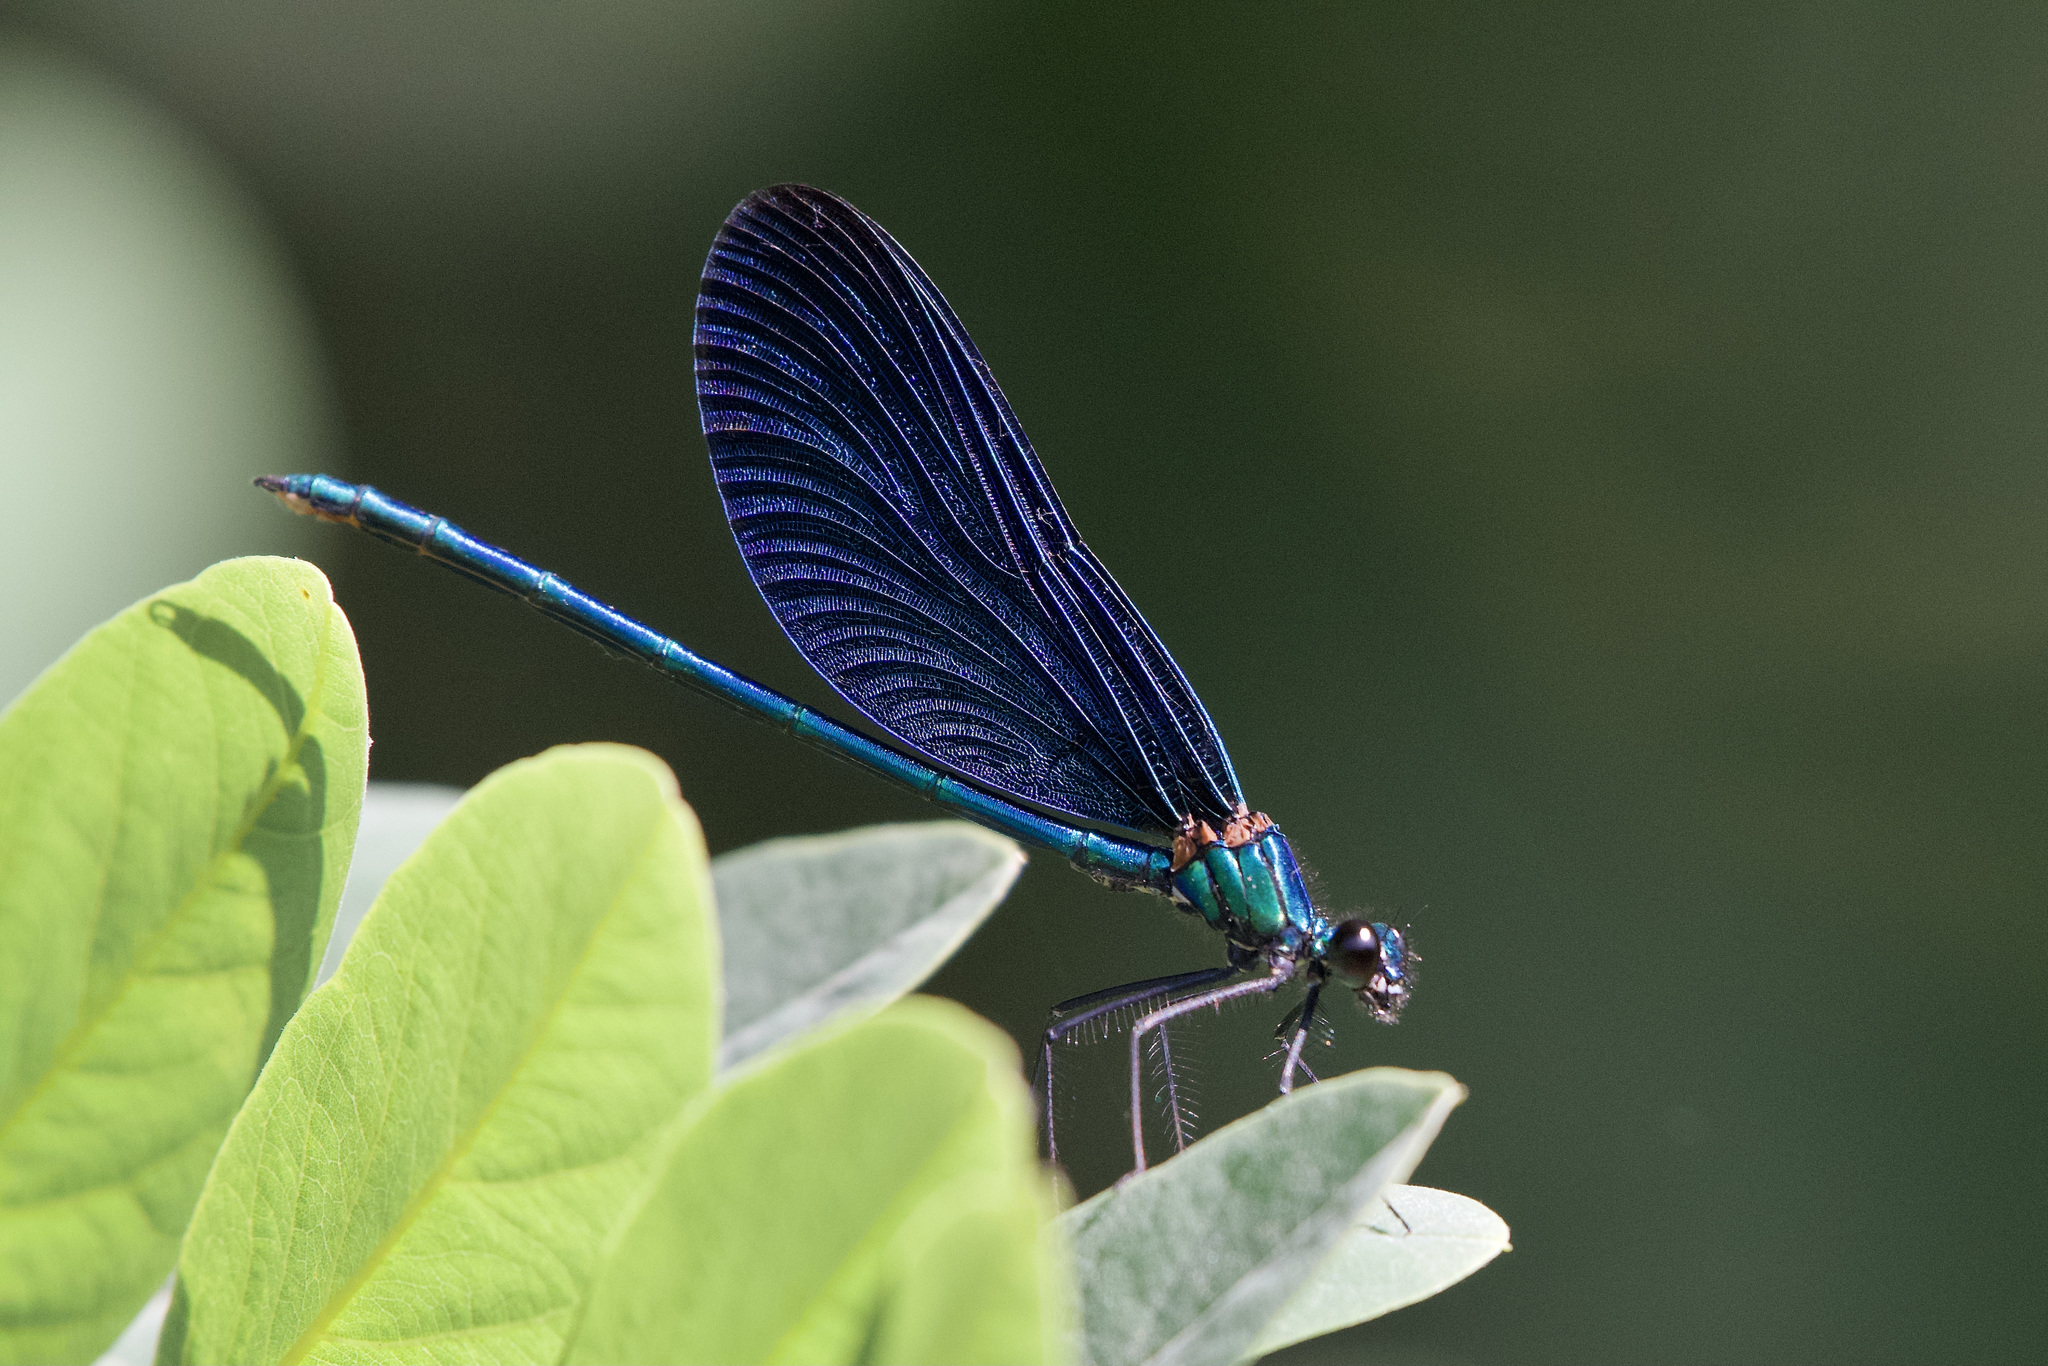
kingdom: Animalia
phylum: Arthropoda
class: Insecta
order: Odonata
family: Calopterygidae
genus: Calopteryx
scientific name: Calopteryx virgo
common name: Beautiful demoiselle
